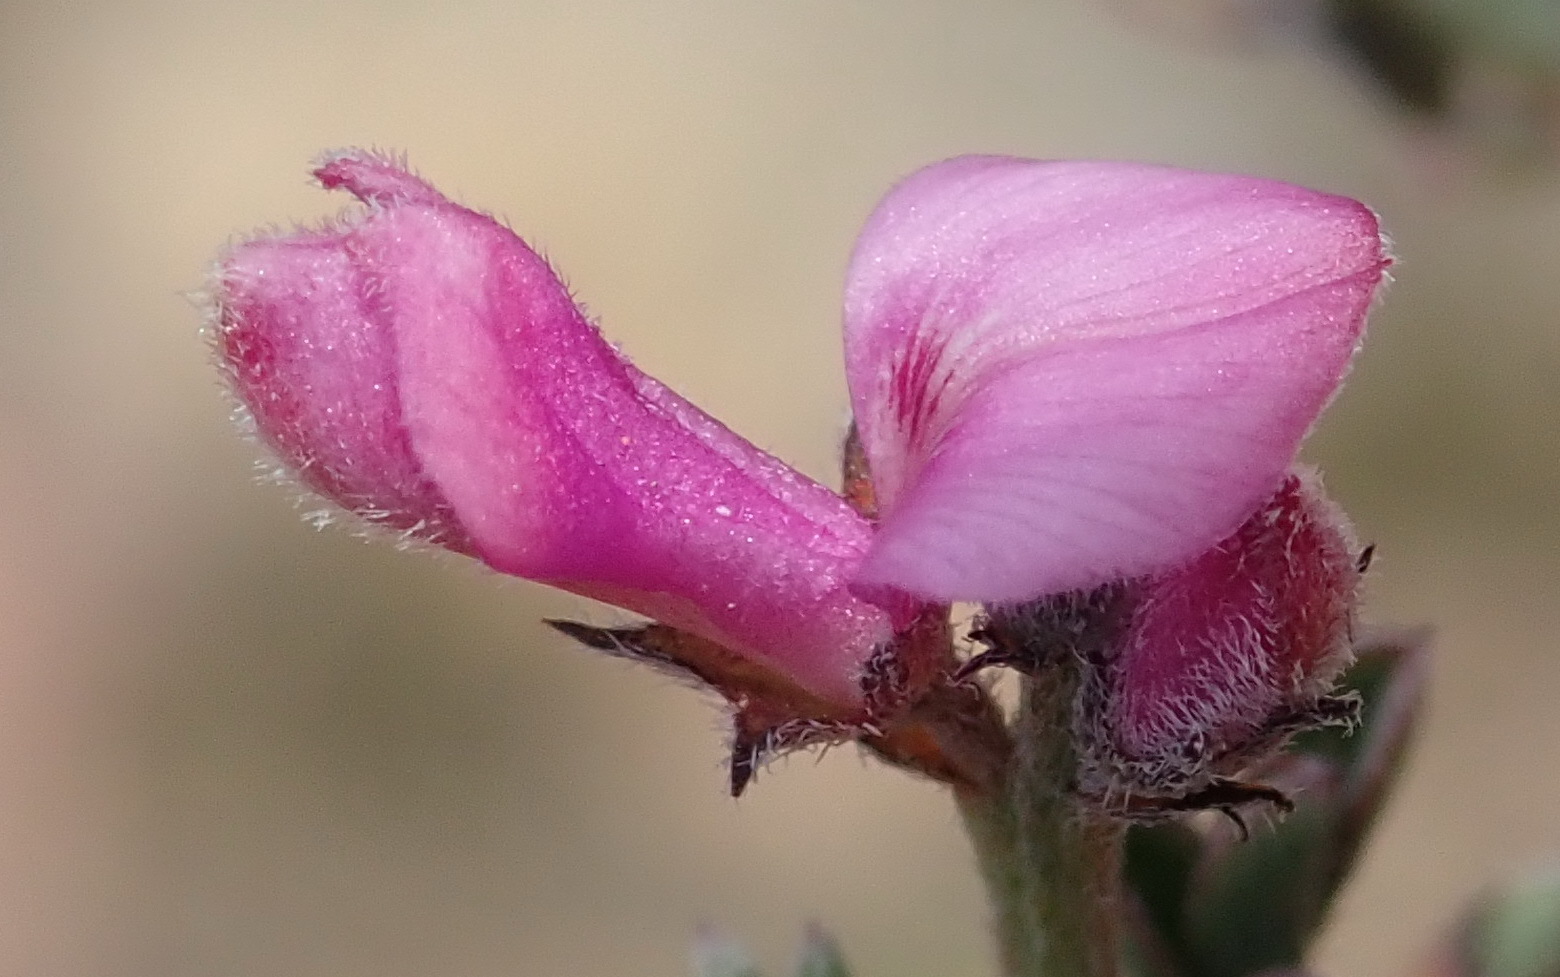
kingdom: Plantae
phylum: Tracheophyta
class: Magnoliopsida
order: Fabales
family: Fabaceae
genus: Indigofera
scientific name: Indigofera declinata
